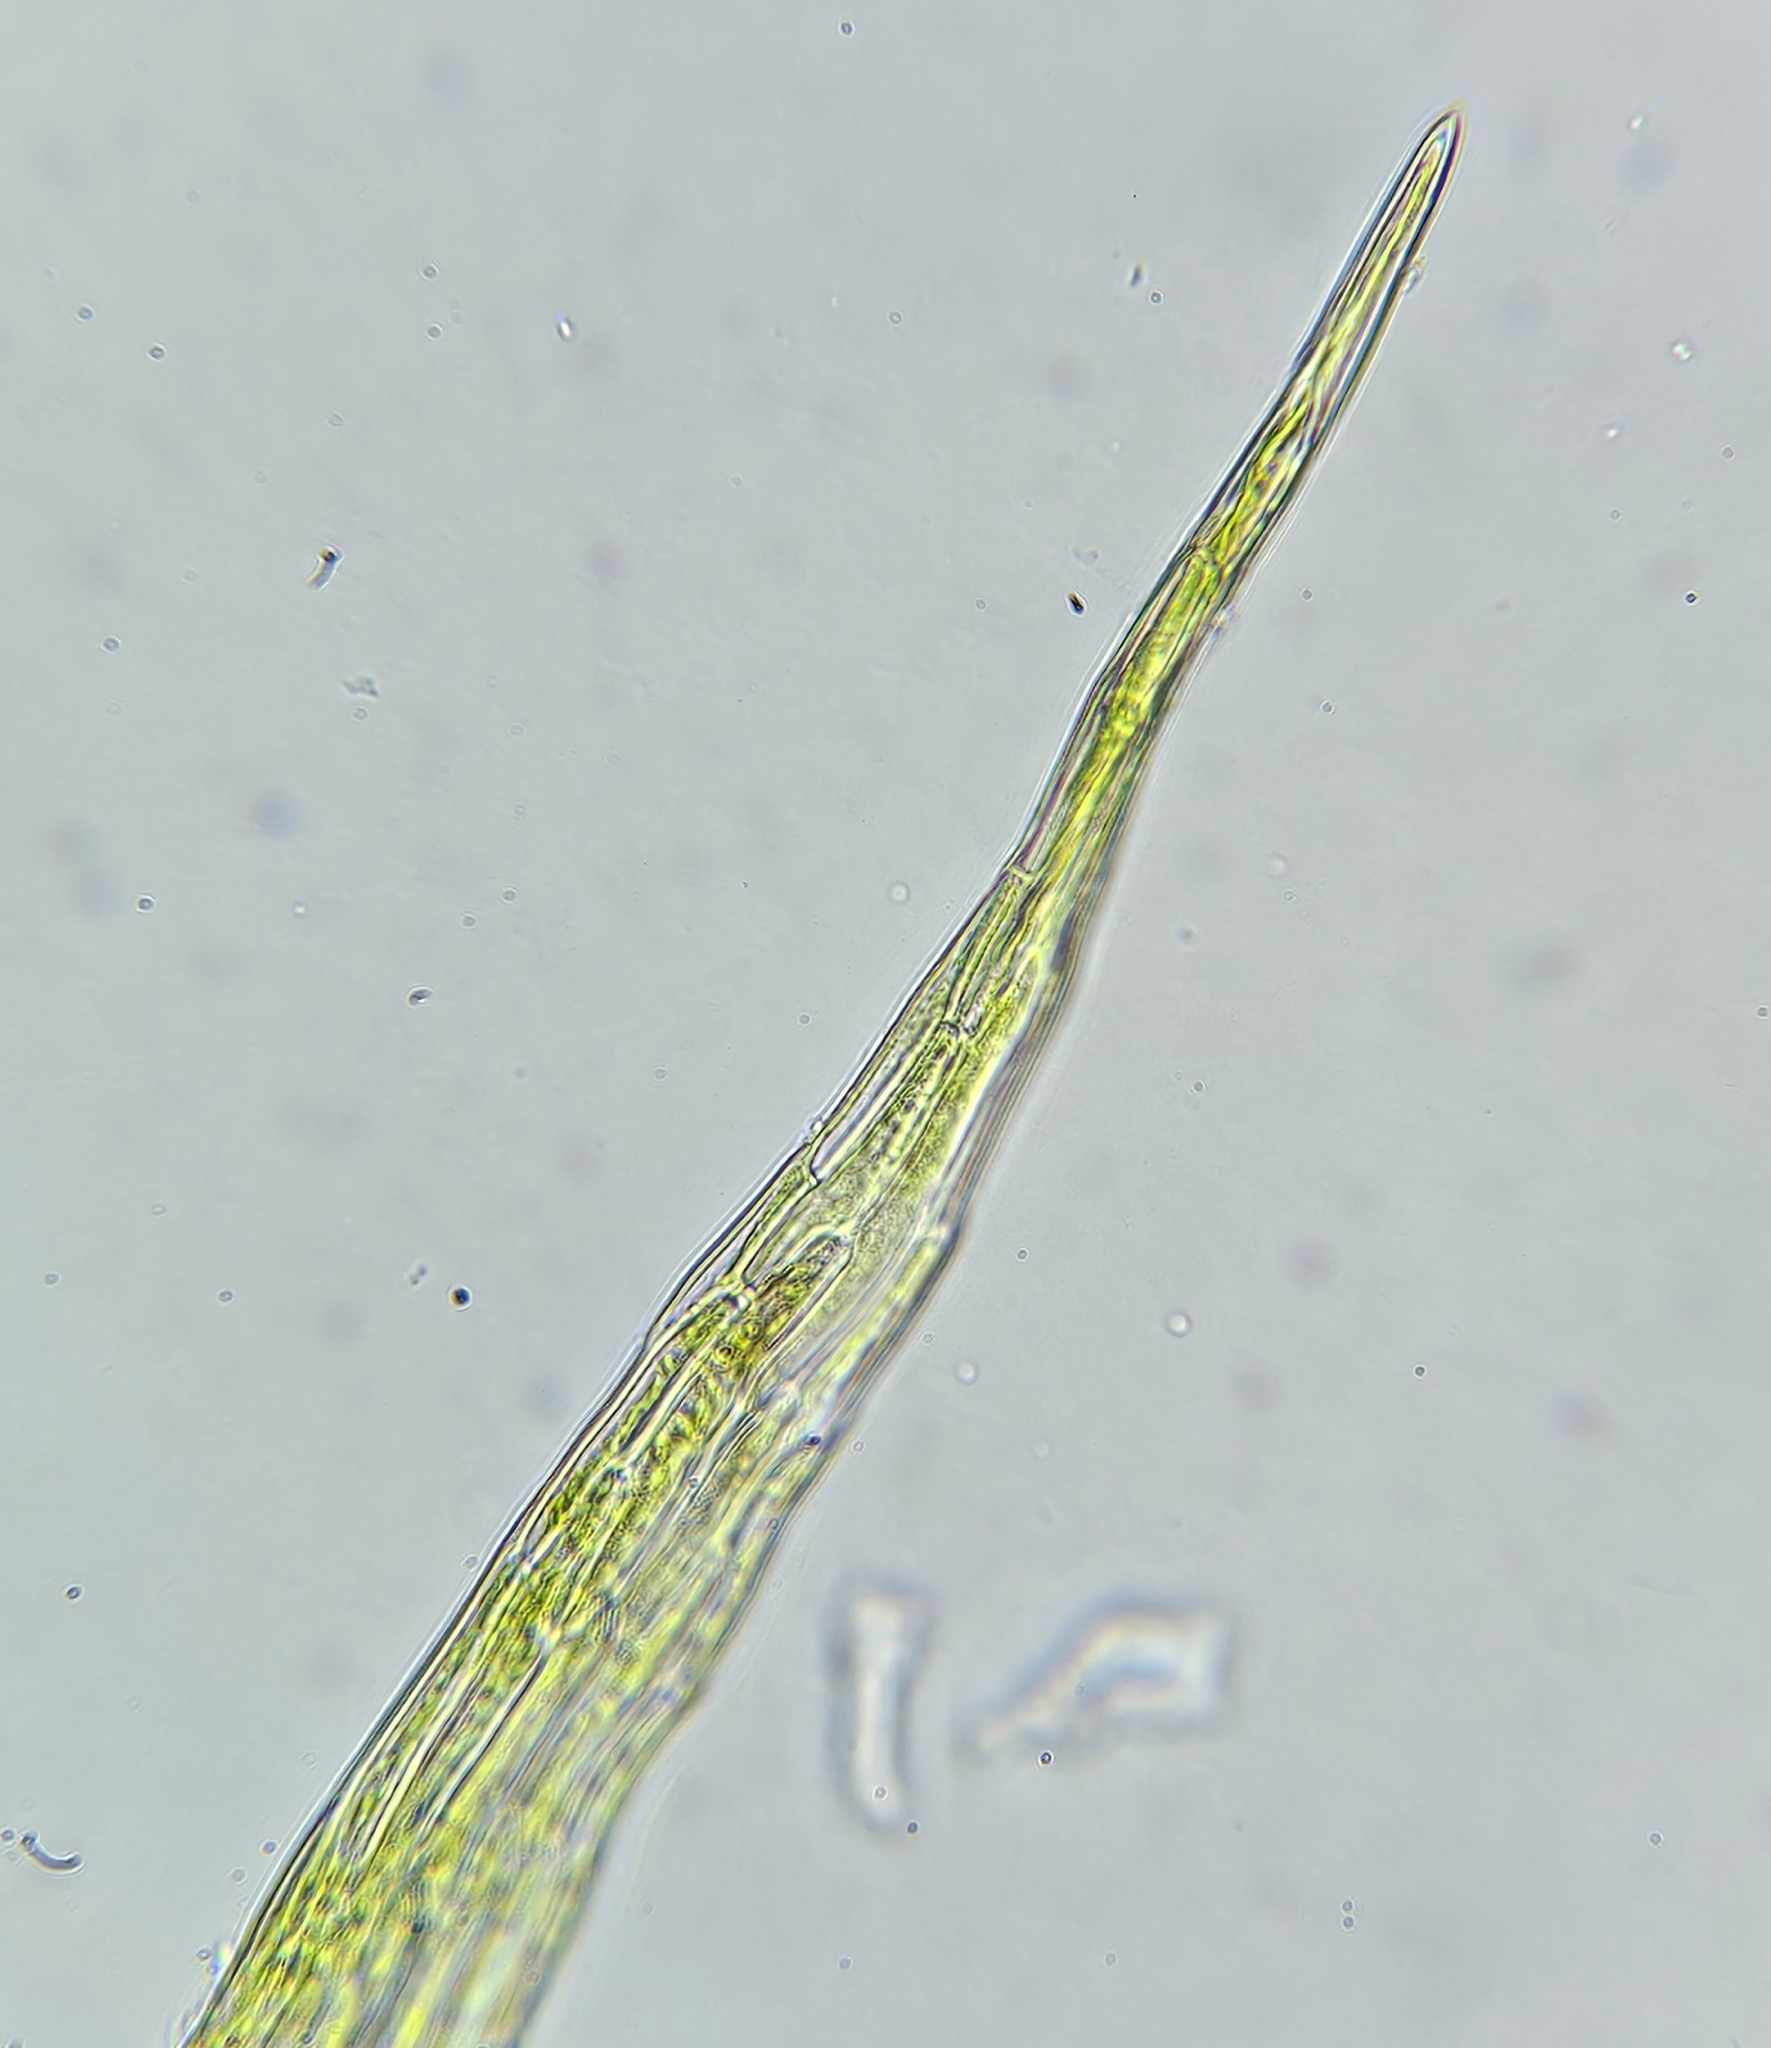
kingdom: Plantae
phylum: Bryophyta
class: Bryopsida
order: Hypnales
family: Amblystegiaceae
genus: Campylium
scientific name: Campylium protensum
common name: Dull starry fen moss
